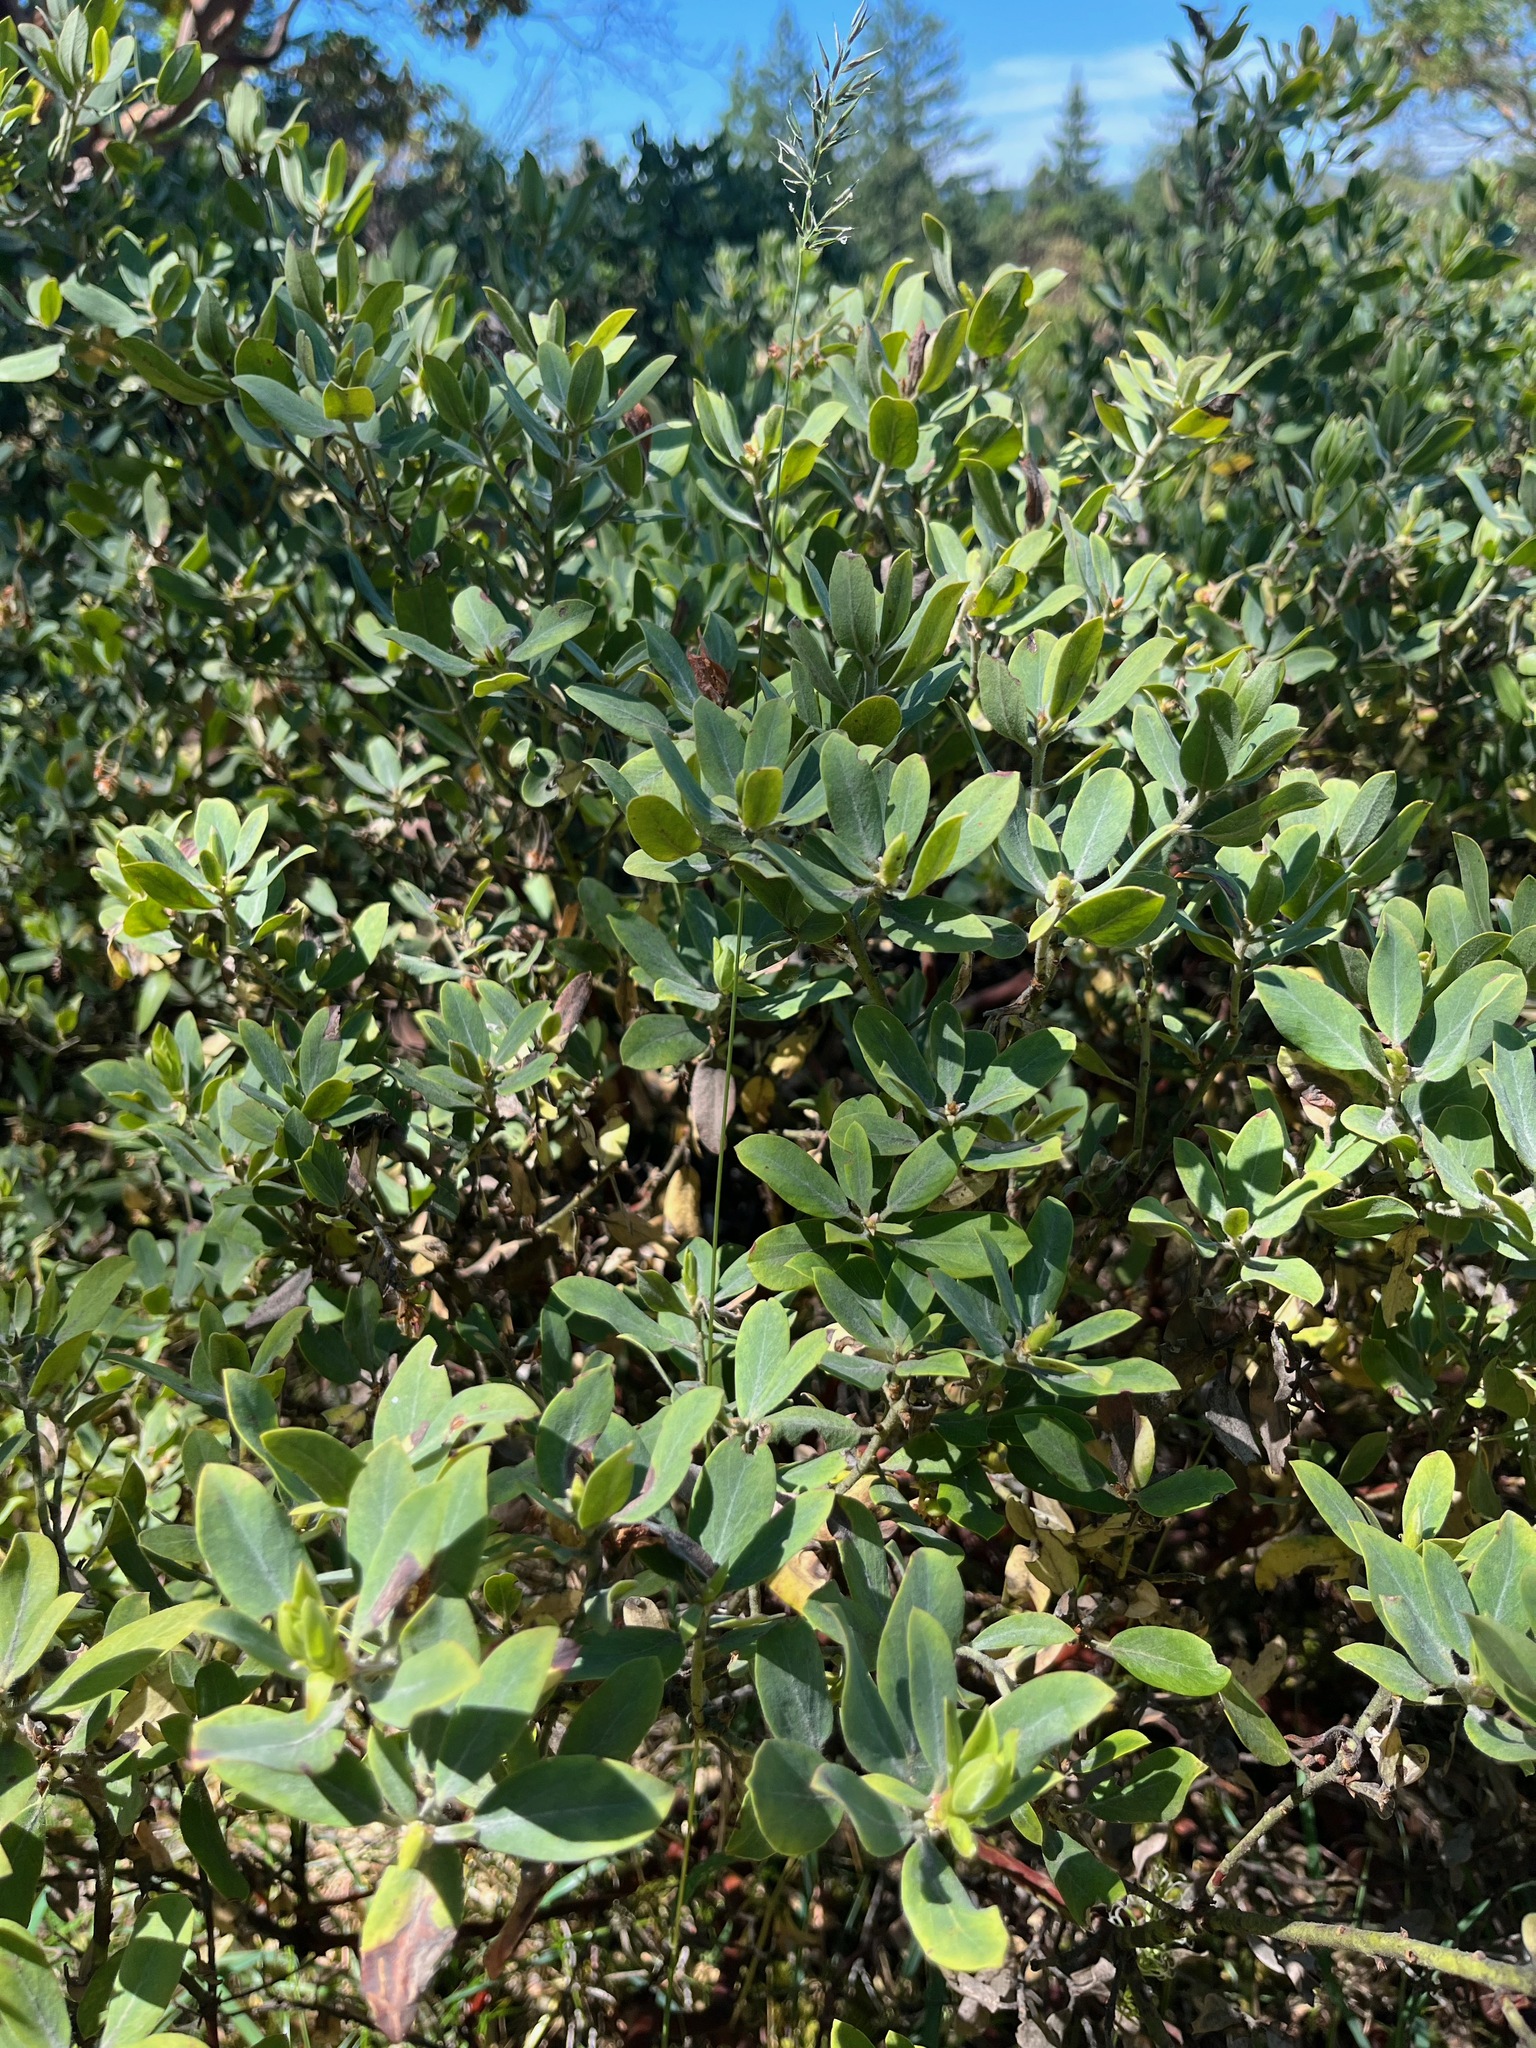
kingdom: Plantae
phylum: Tracheophyta
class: Magnoliopsida
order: Ericales
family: Ericaceae
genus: Arctostaphylos
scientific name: Arctostaphylos columbiana
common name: Bristly bearberry
